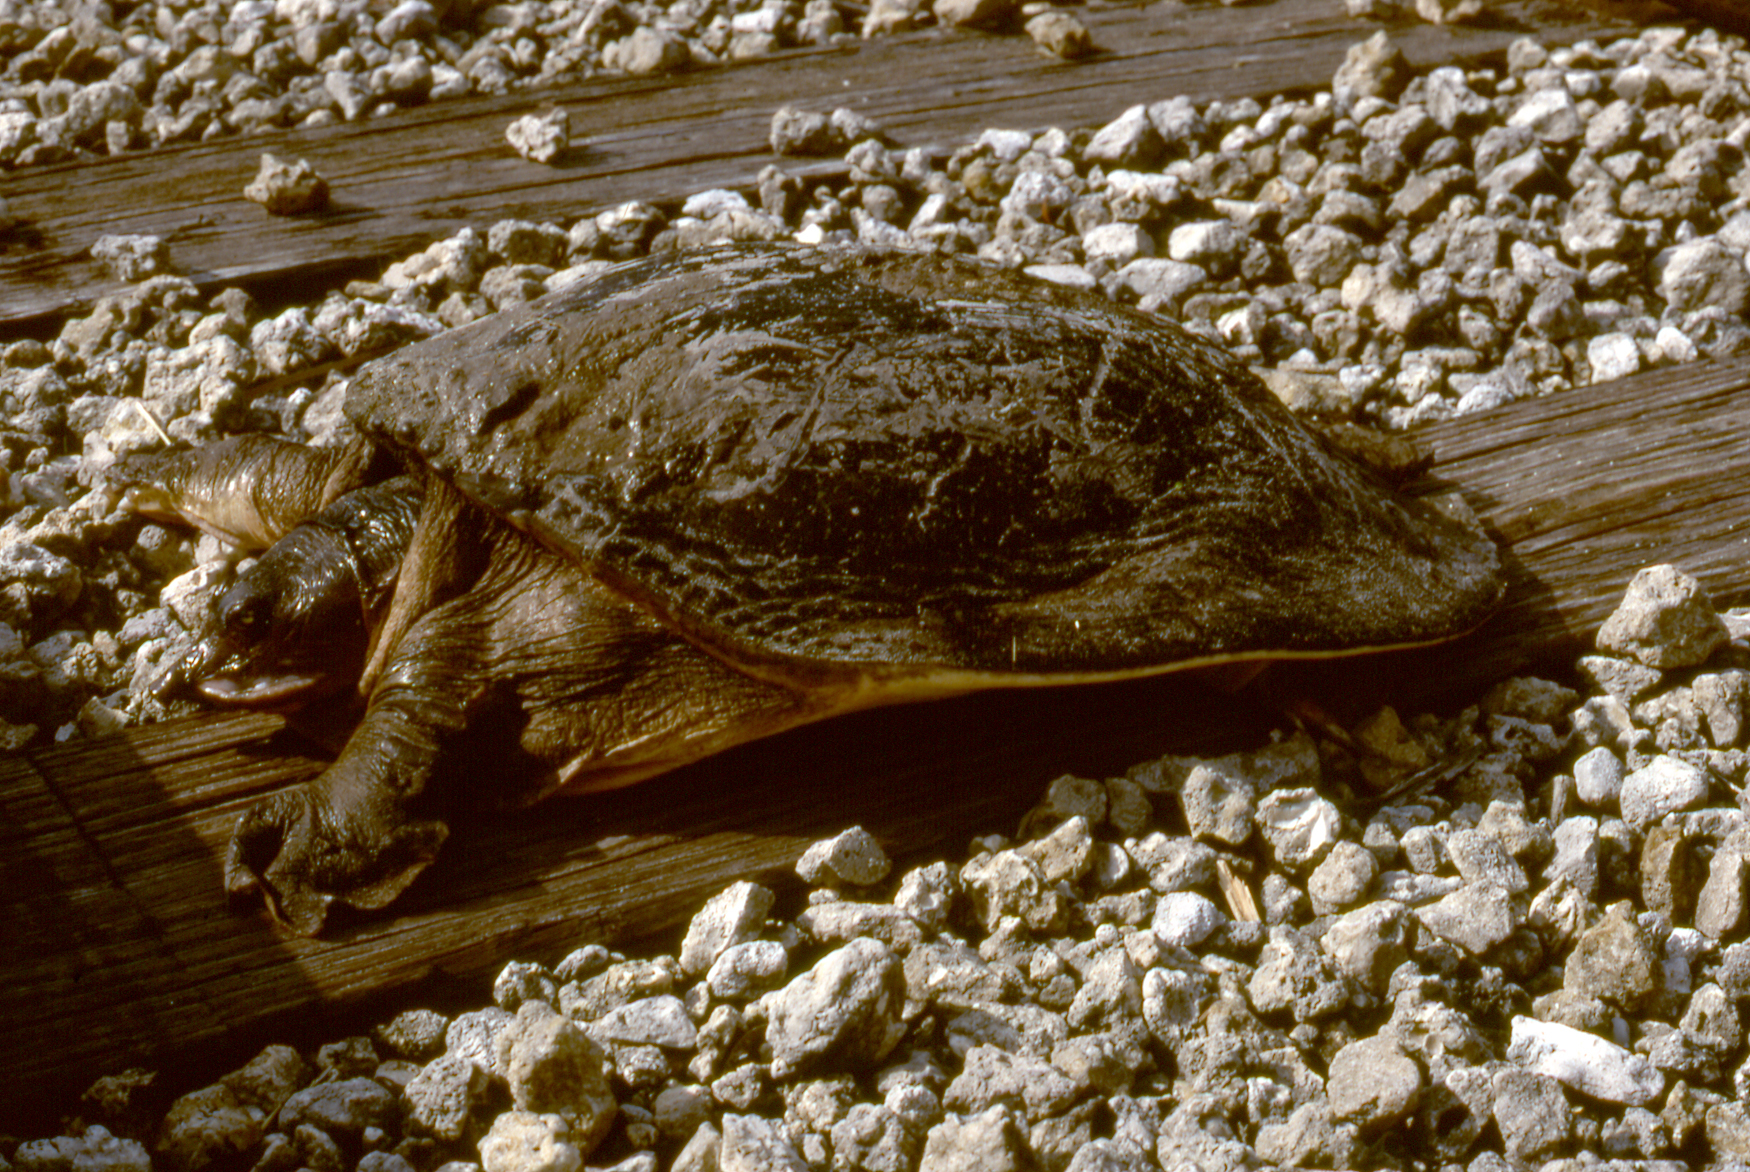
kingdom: Animalia
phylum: Chordata
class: Testudines
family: Trionychidae
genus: Apalone
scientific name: Apalone ferox
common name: Florida softshell turtle
